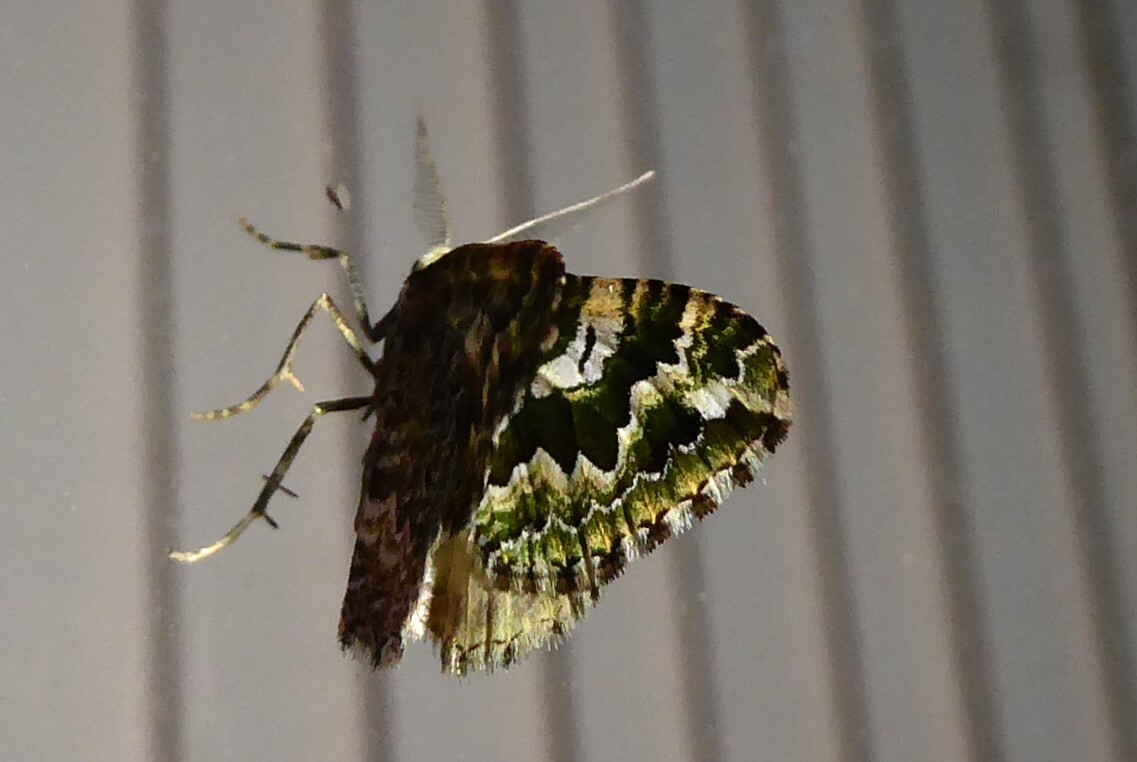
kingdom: Animalia
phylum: Arthropoda
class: Insecta
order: Lepidoptera
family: Geometridae
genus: Asaphodes
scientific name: Asaphodes beata
